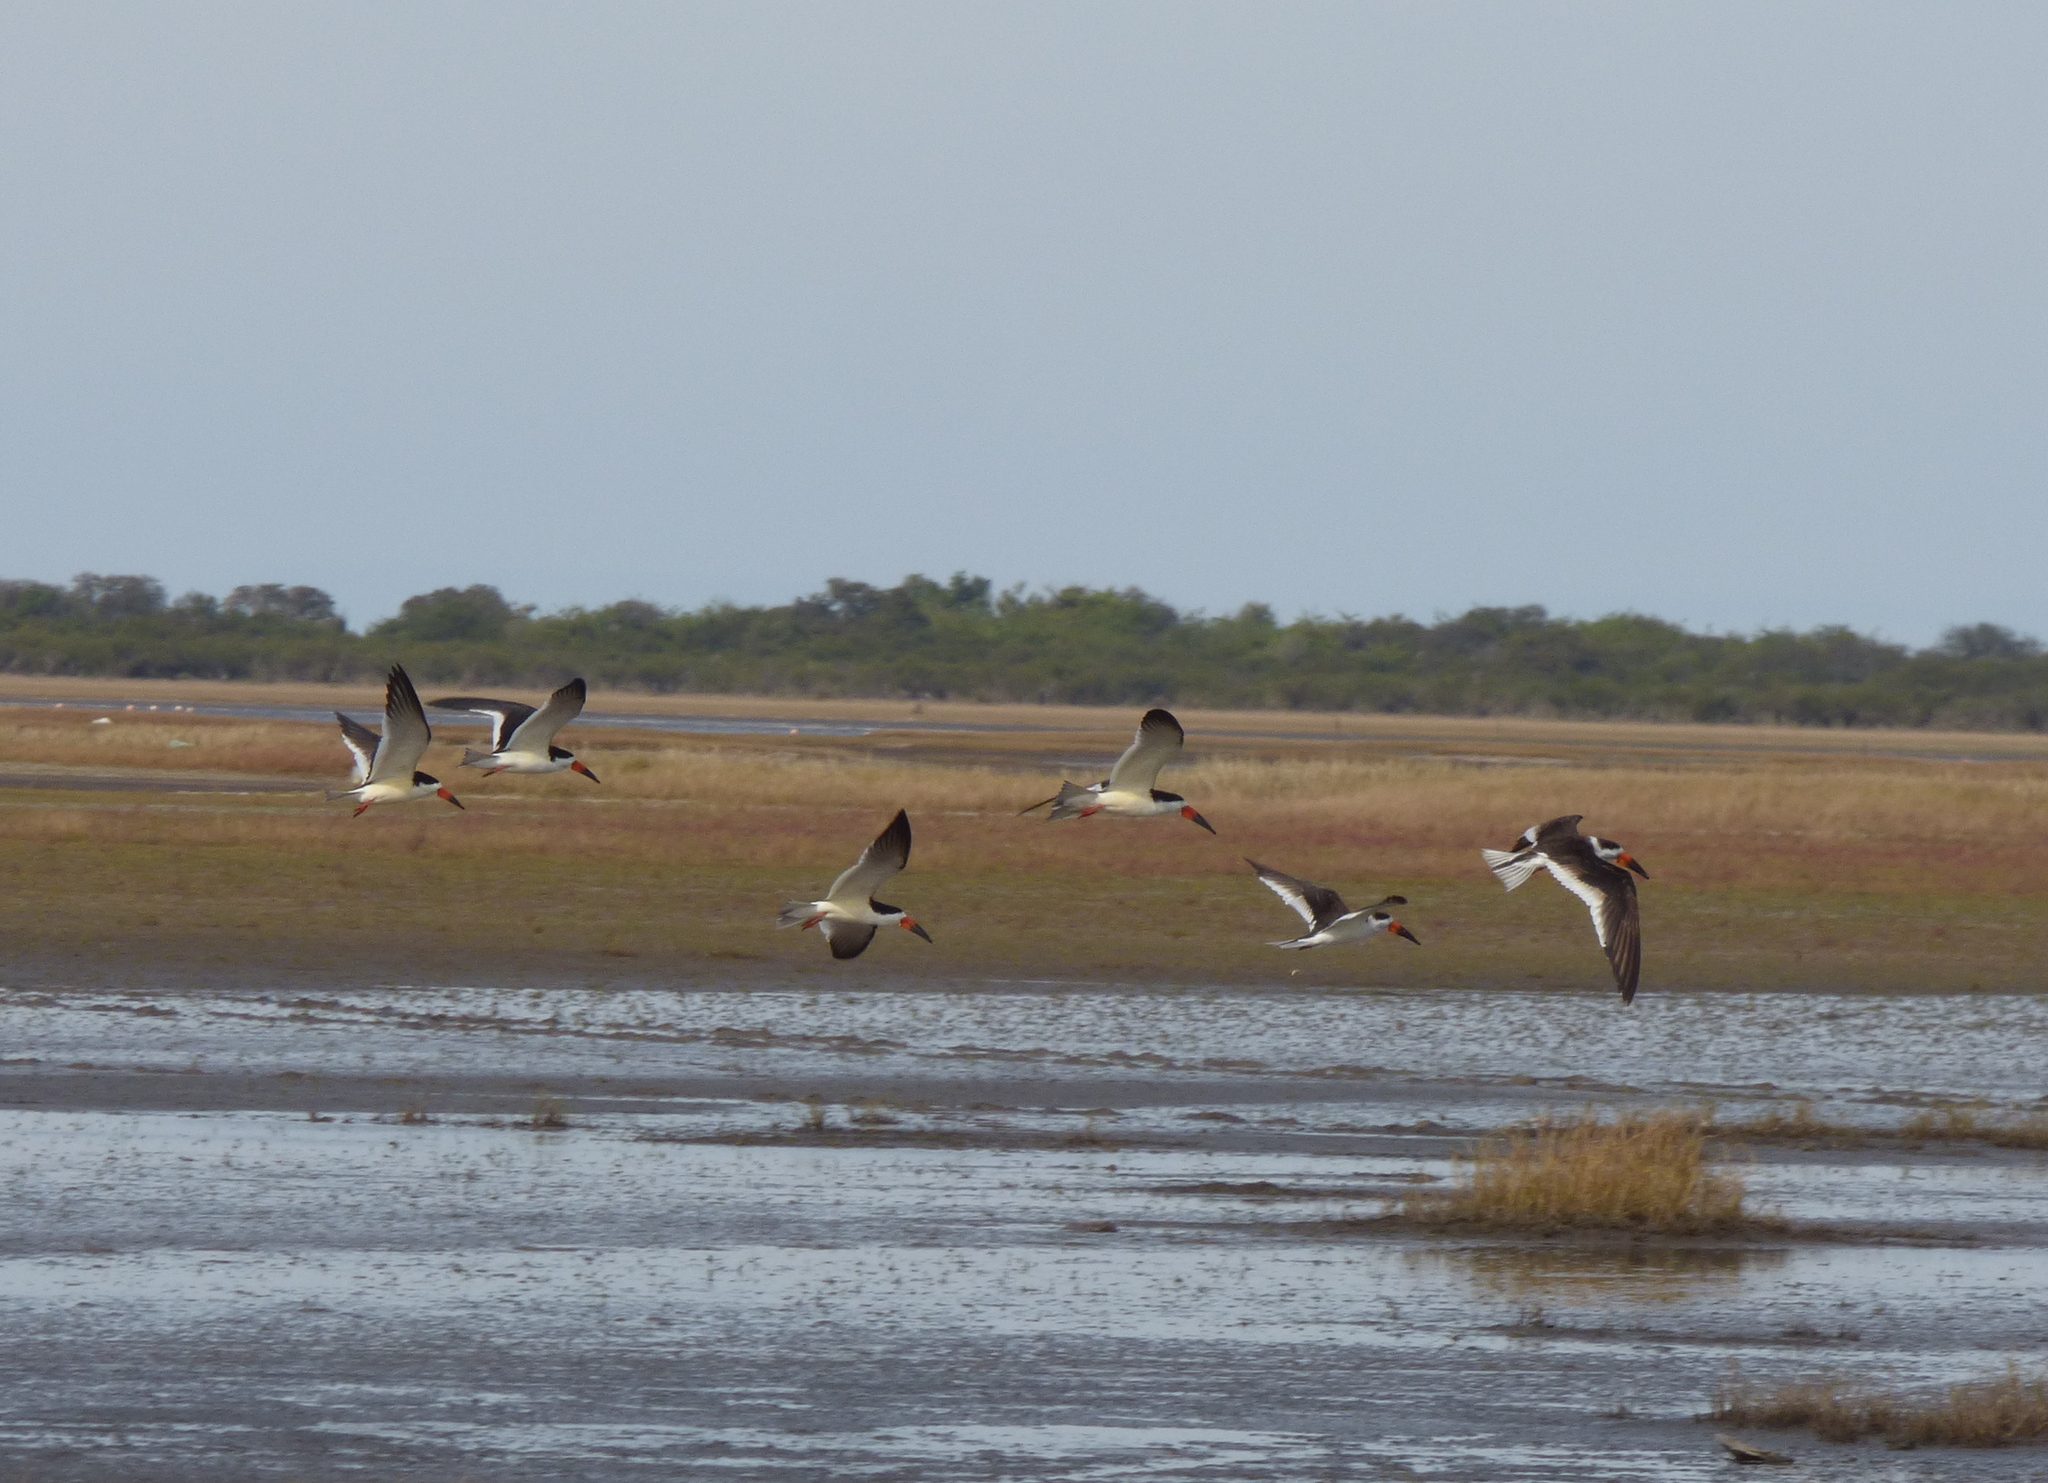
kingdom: Animalia
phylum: Chordata
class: Aves
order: Charadriiformes
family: Laridae
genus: Rynchops
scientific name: Rynchops niger
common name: Black skimmer
